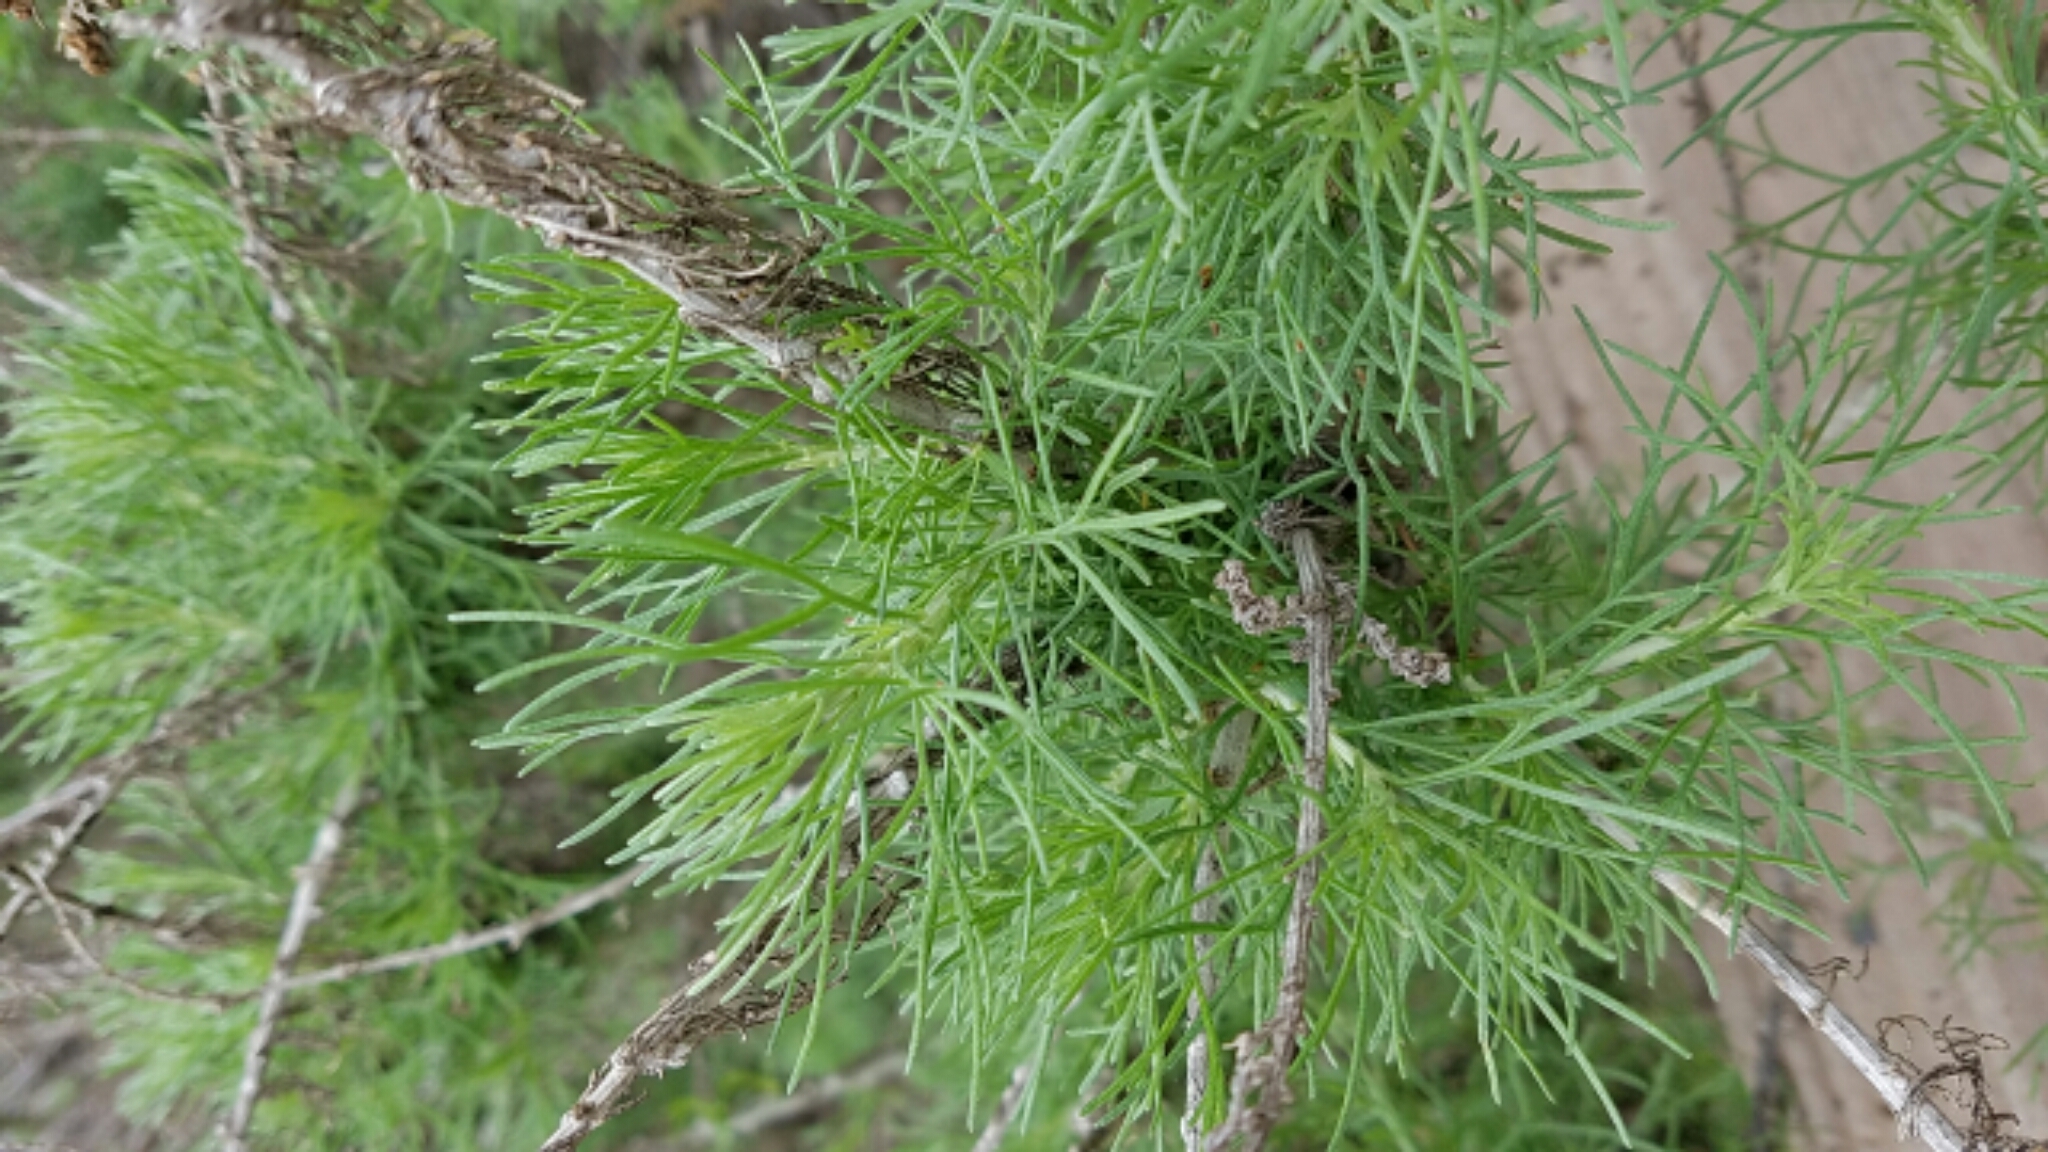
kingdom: Plantae
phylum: Tracheophyta
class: Magnoliopsida
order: Asterales
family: Asteraceae
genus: Artemisia
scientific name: Artemisia californica
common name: California sagebrush
